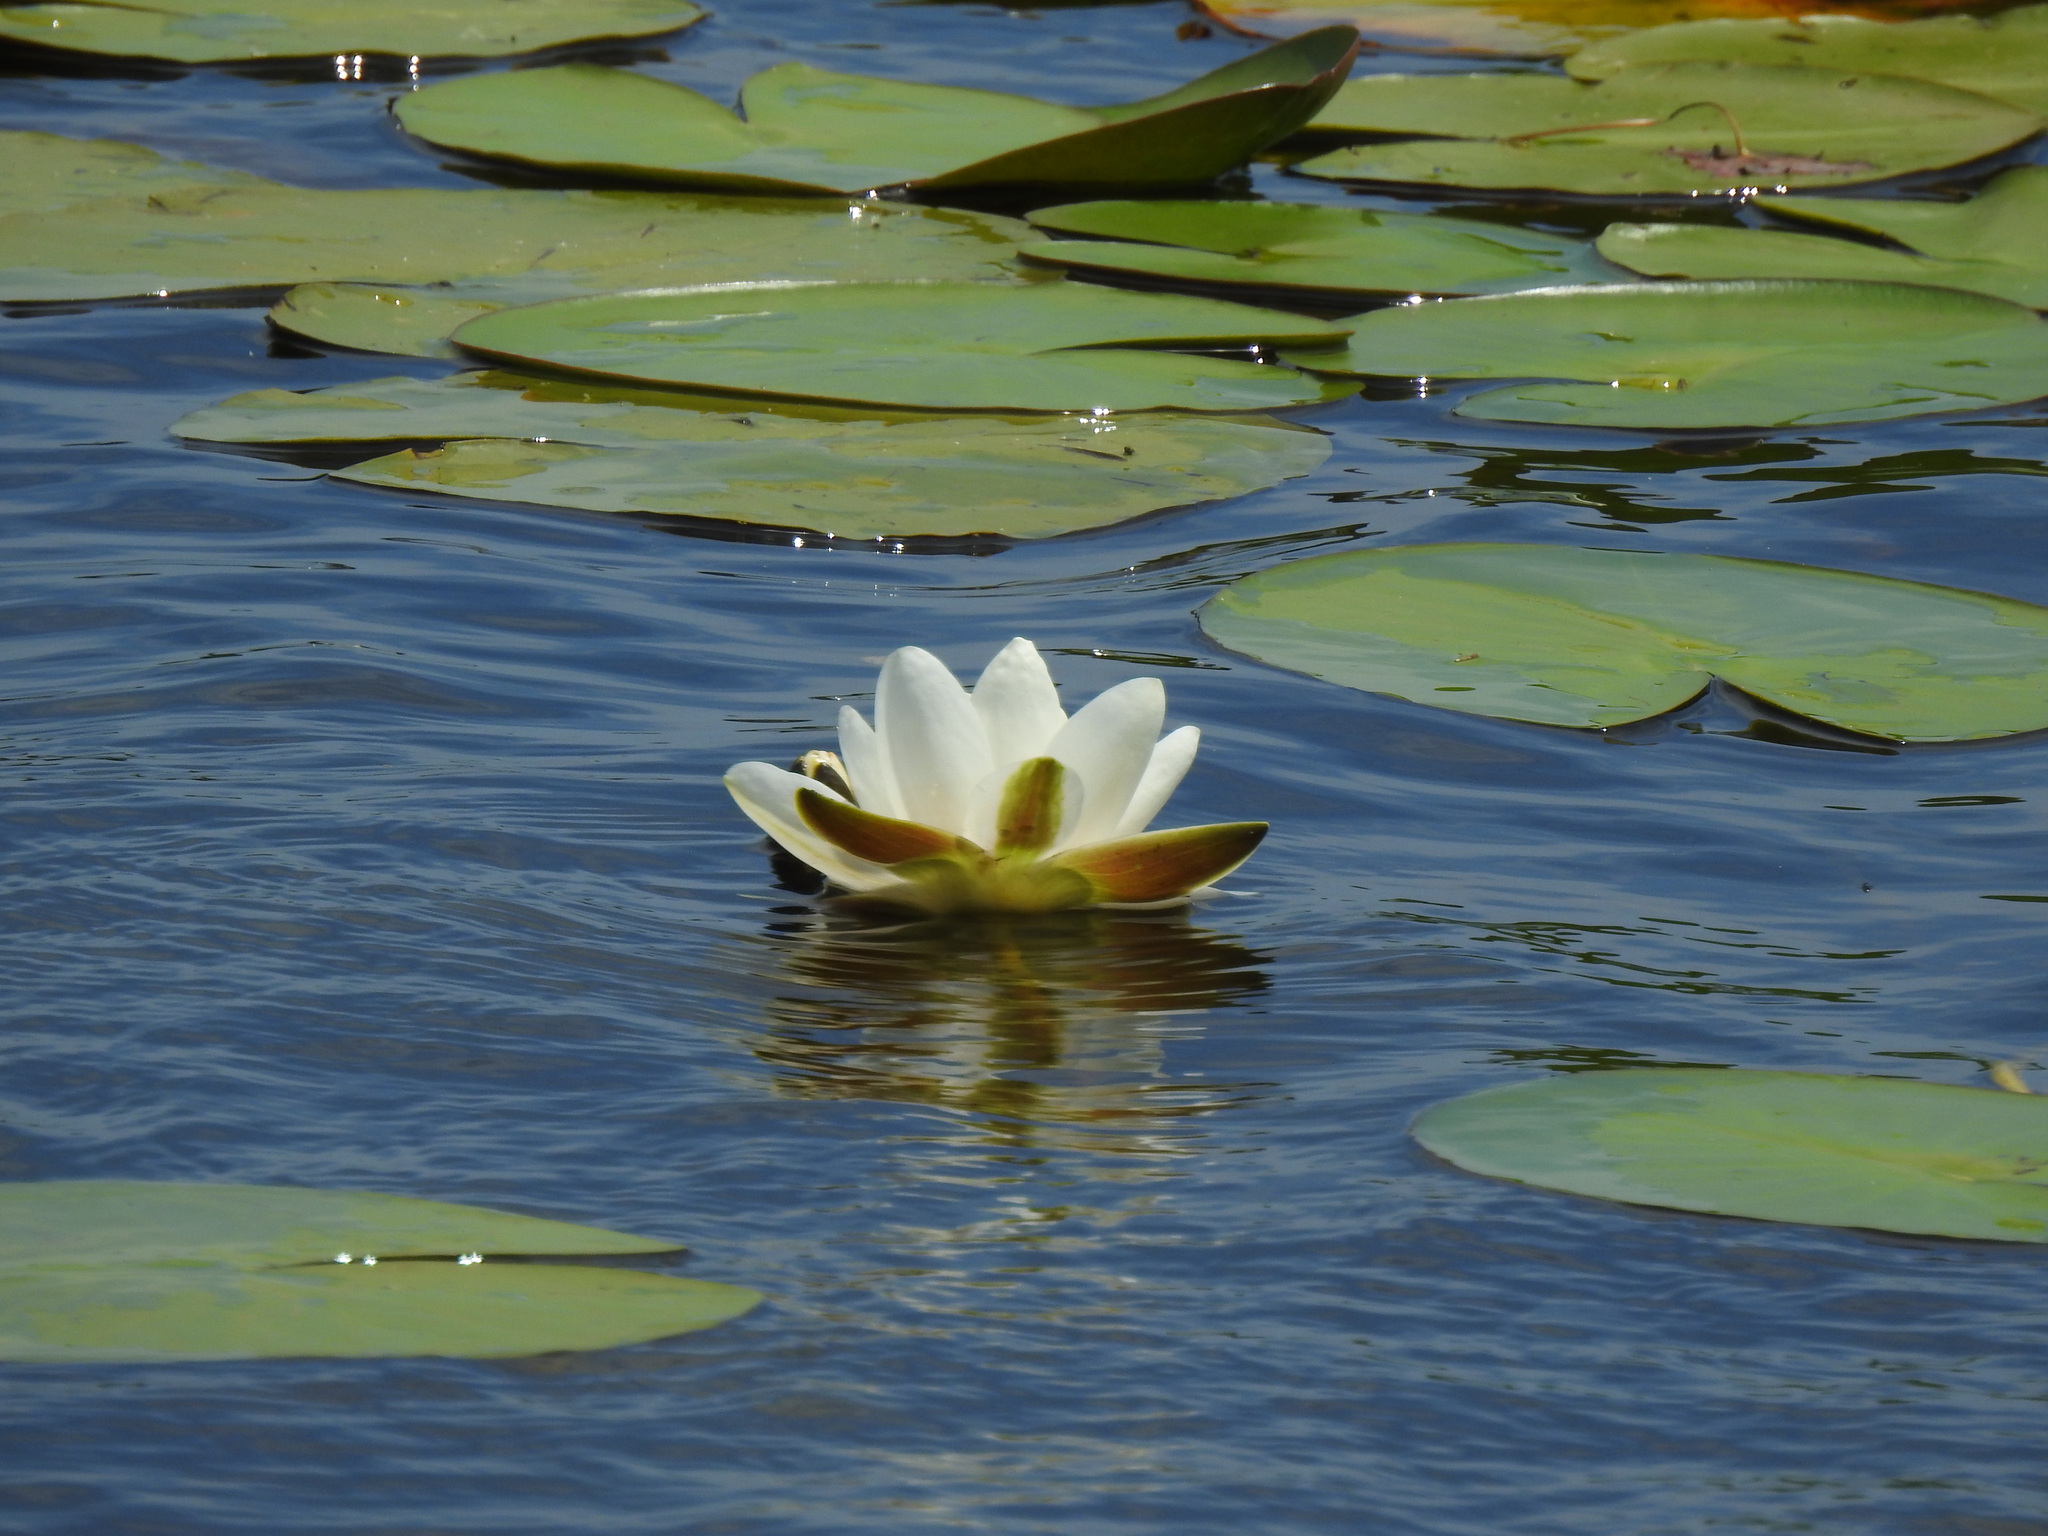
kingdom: Plantae
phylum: Tracheophyta
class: Magnoliopsida
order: Nymphaeales
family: Nymphaeaceae
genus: Nymphaea
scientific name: Nymphaea alba
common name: White water-lily
